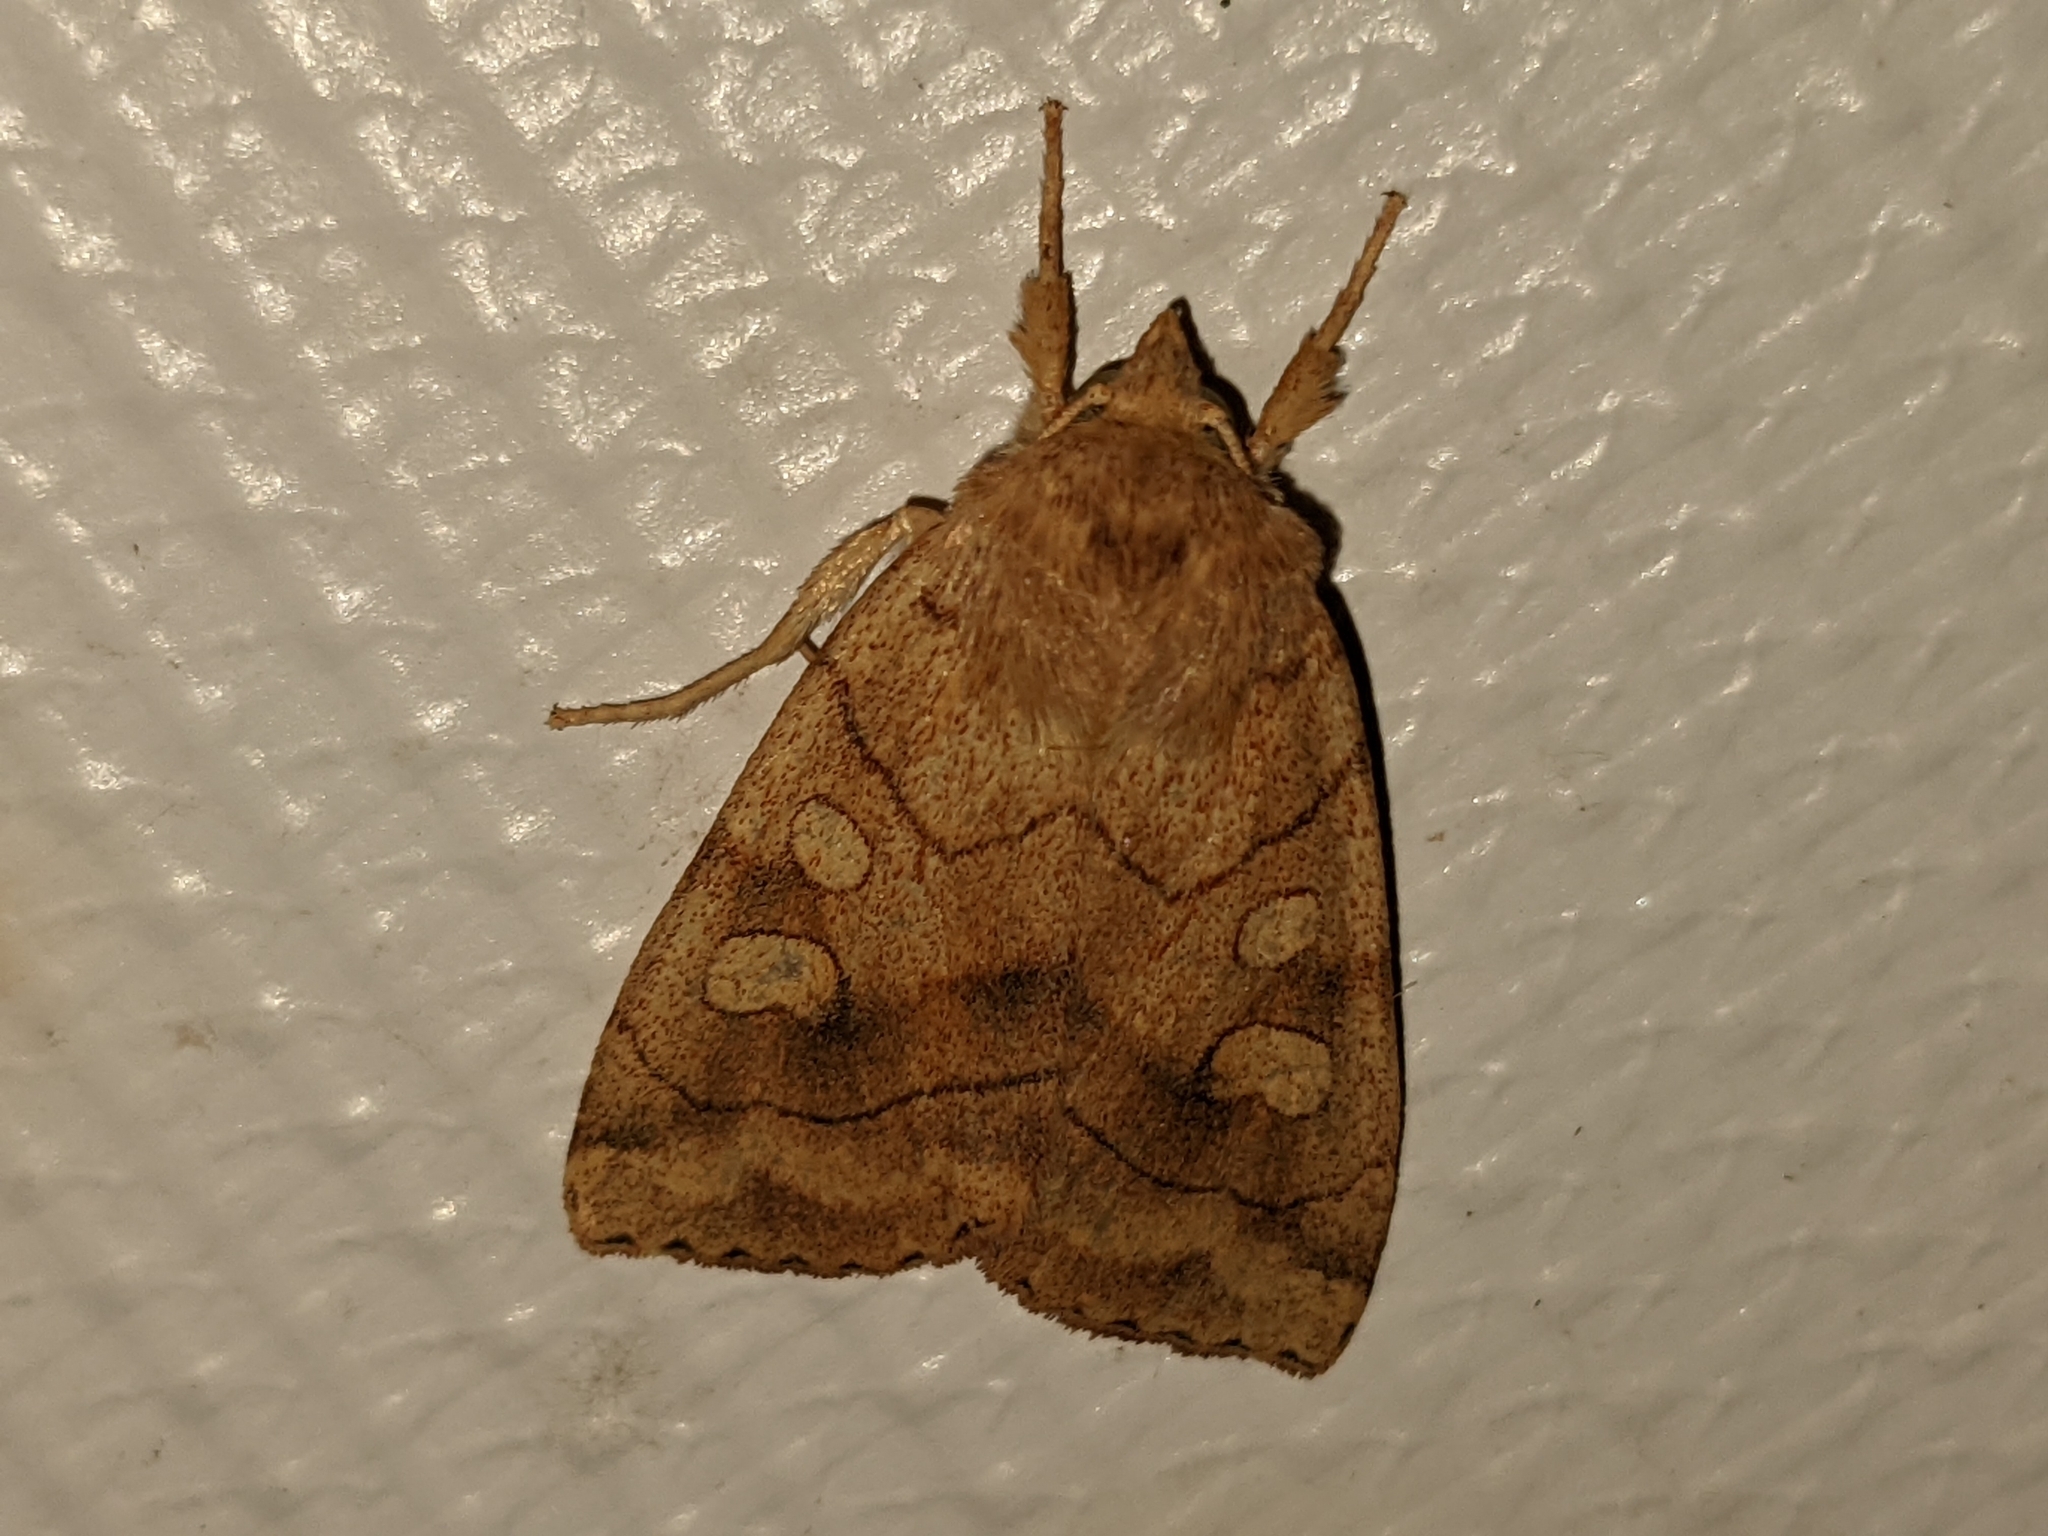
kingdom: Animalia
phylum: Arthropoda
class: Insecta
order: Lepidoptera
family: Noctuidae
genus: Enargia
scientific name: Enargia decolor
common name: Aspen twoleaf tier moth
